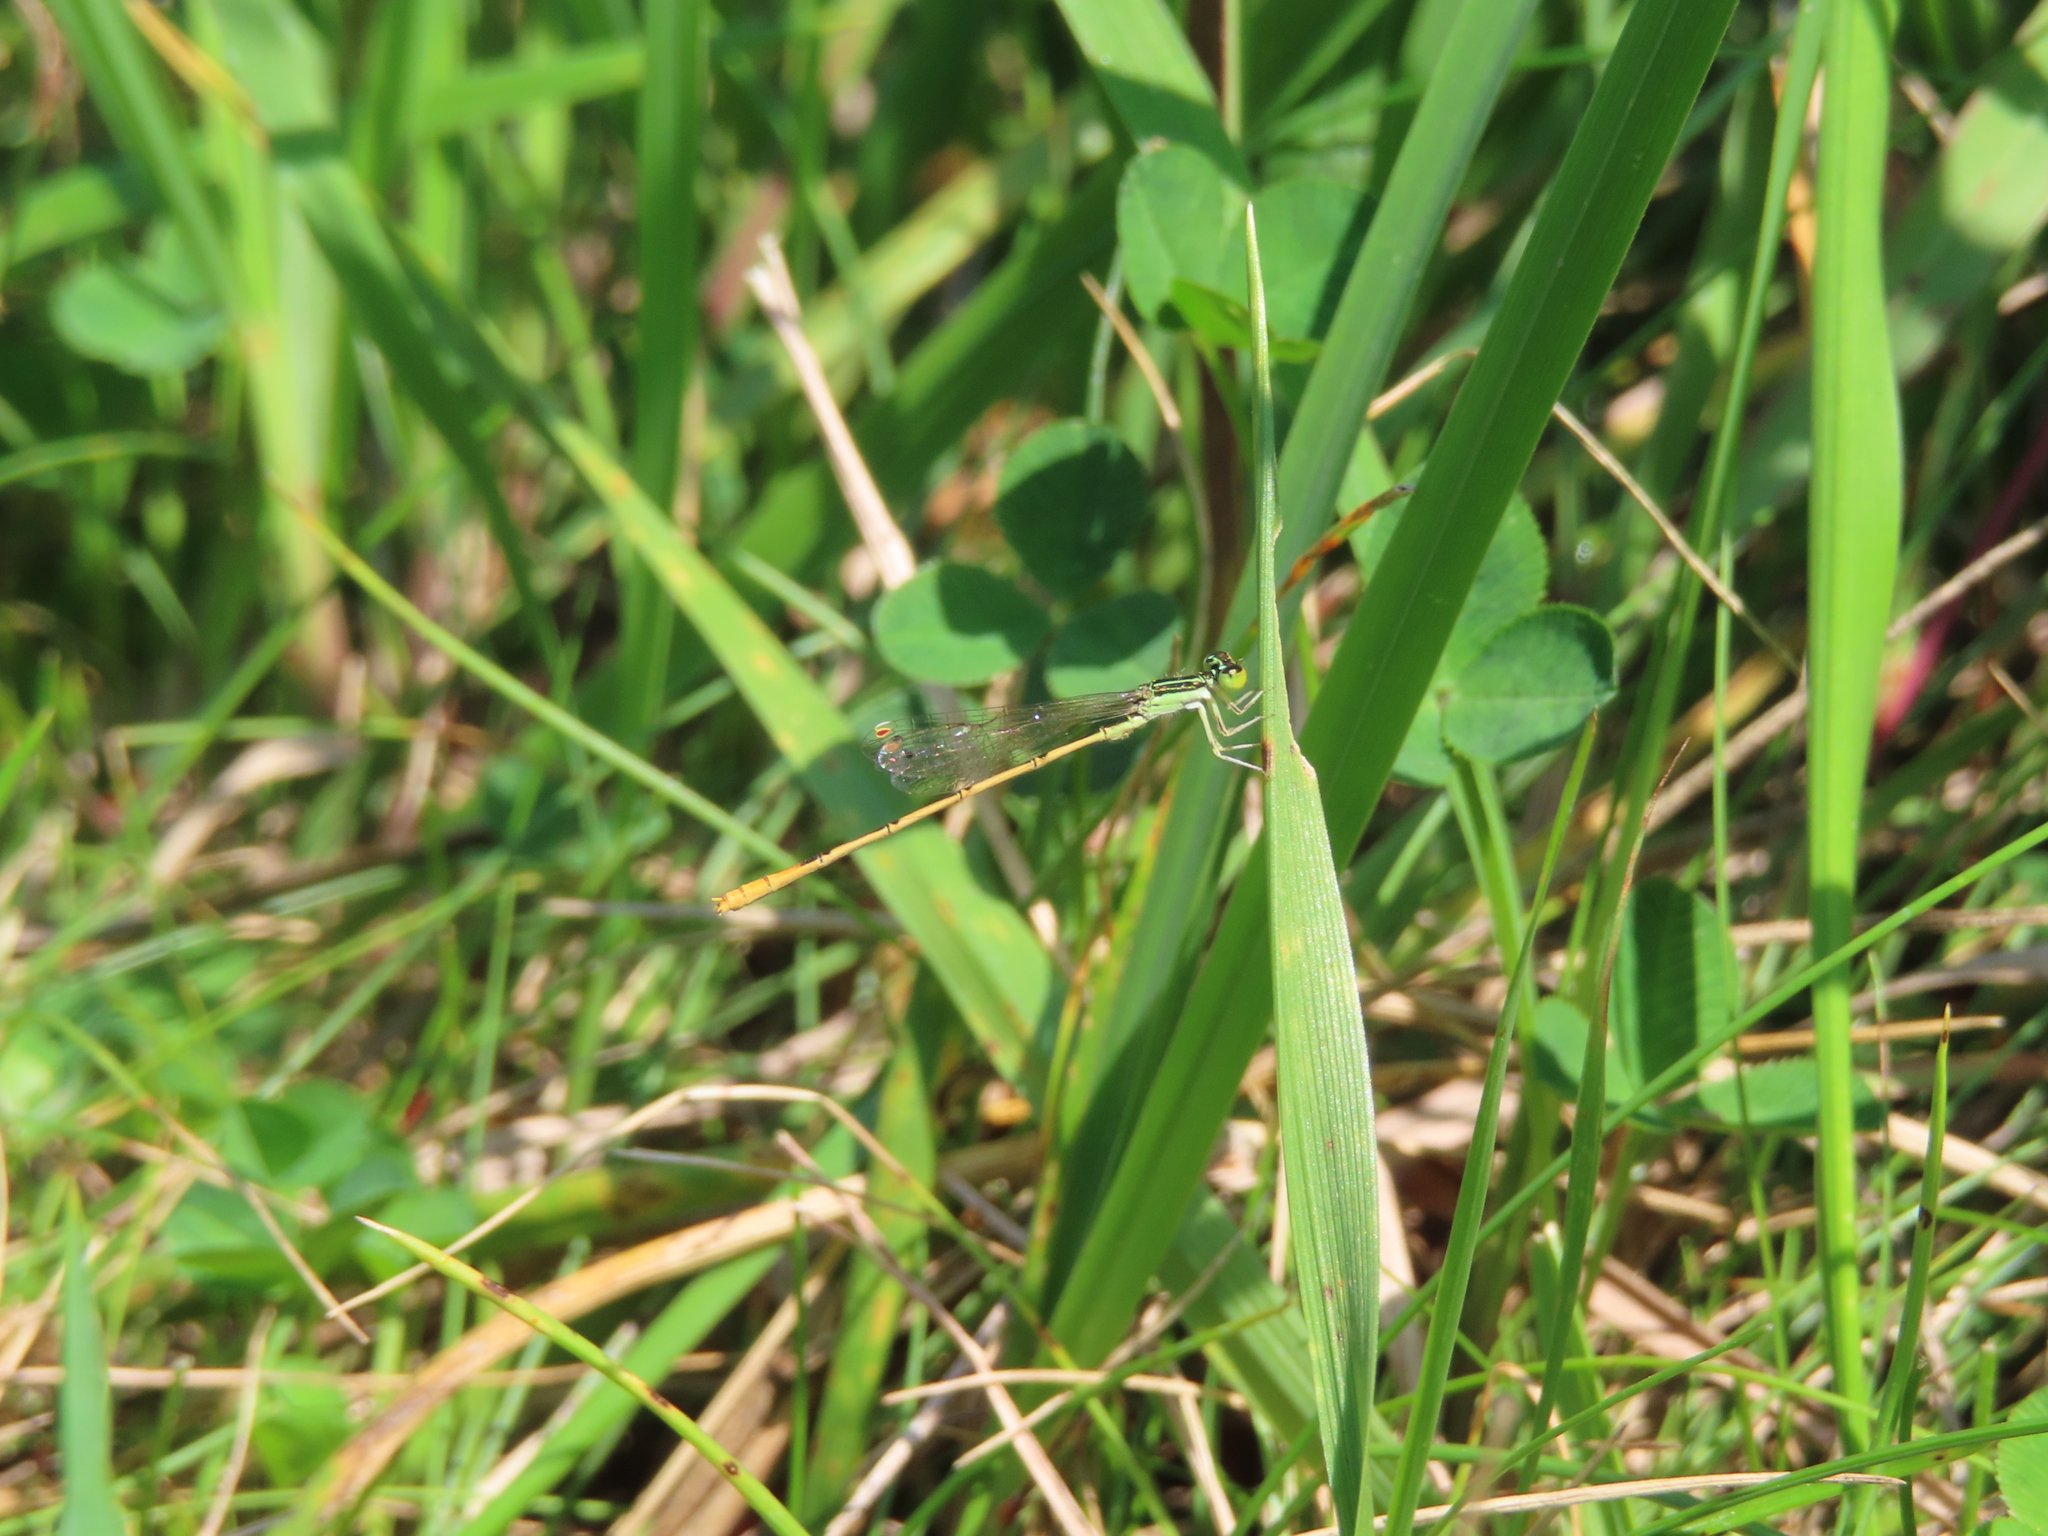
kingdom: Animalia
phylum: Arthropoda
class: Insecta
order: Odonata
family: Coenagrionidae
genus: Ischnura
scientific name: Ischnura hastata
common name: Citrine forktail
